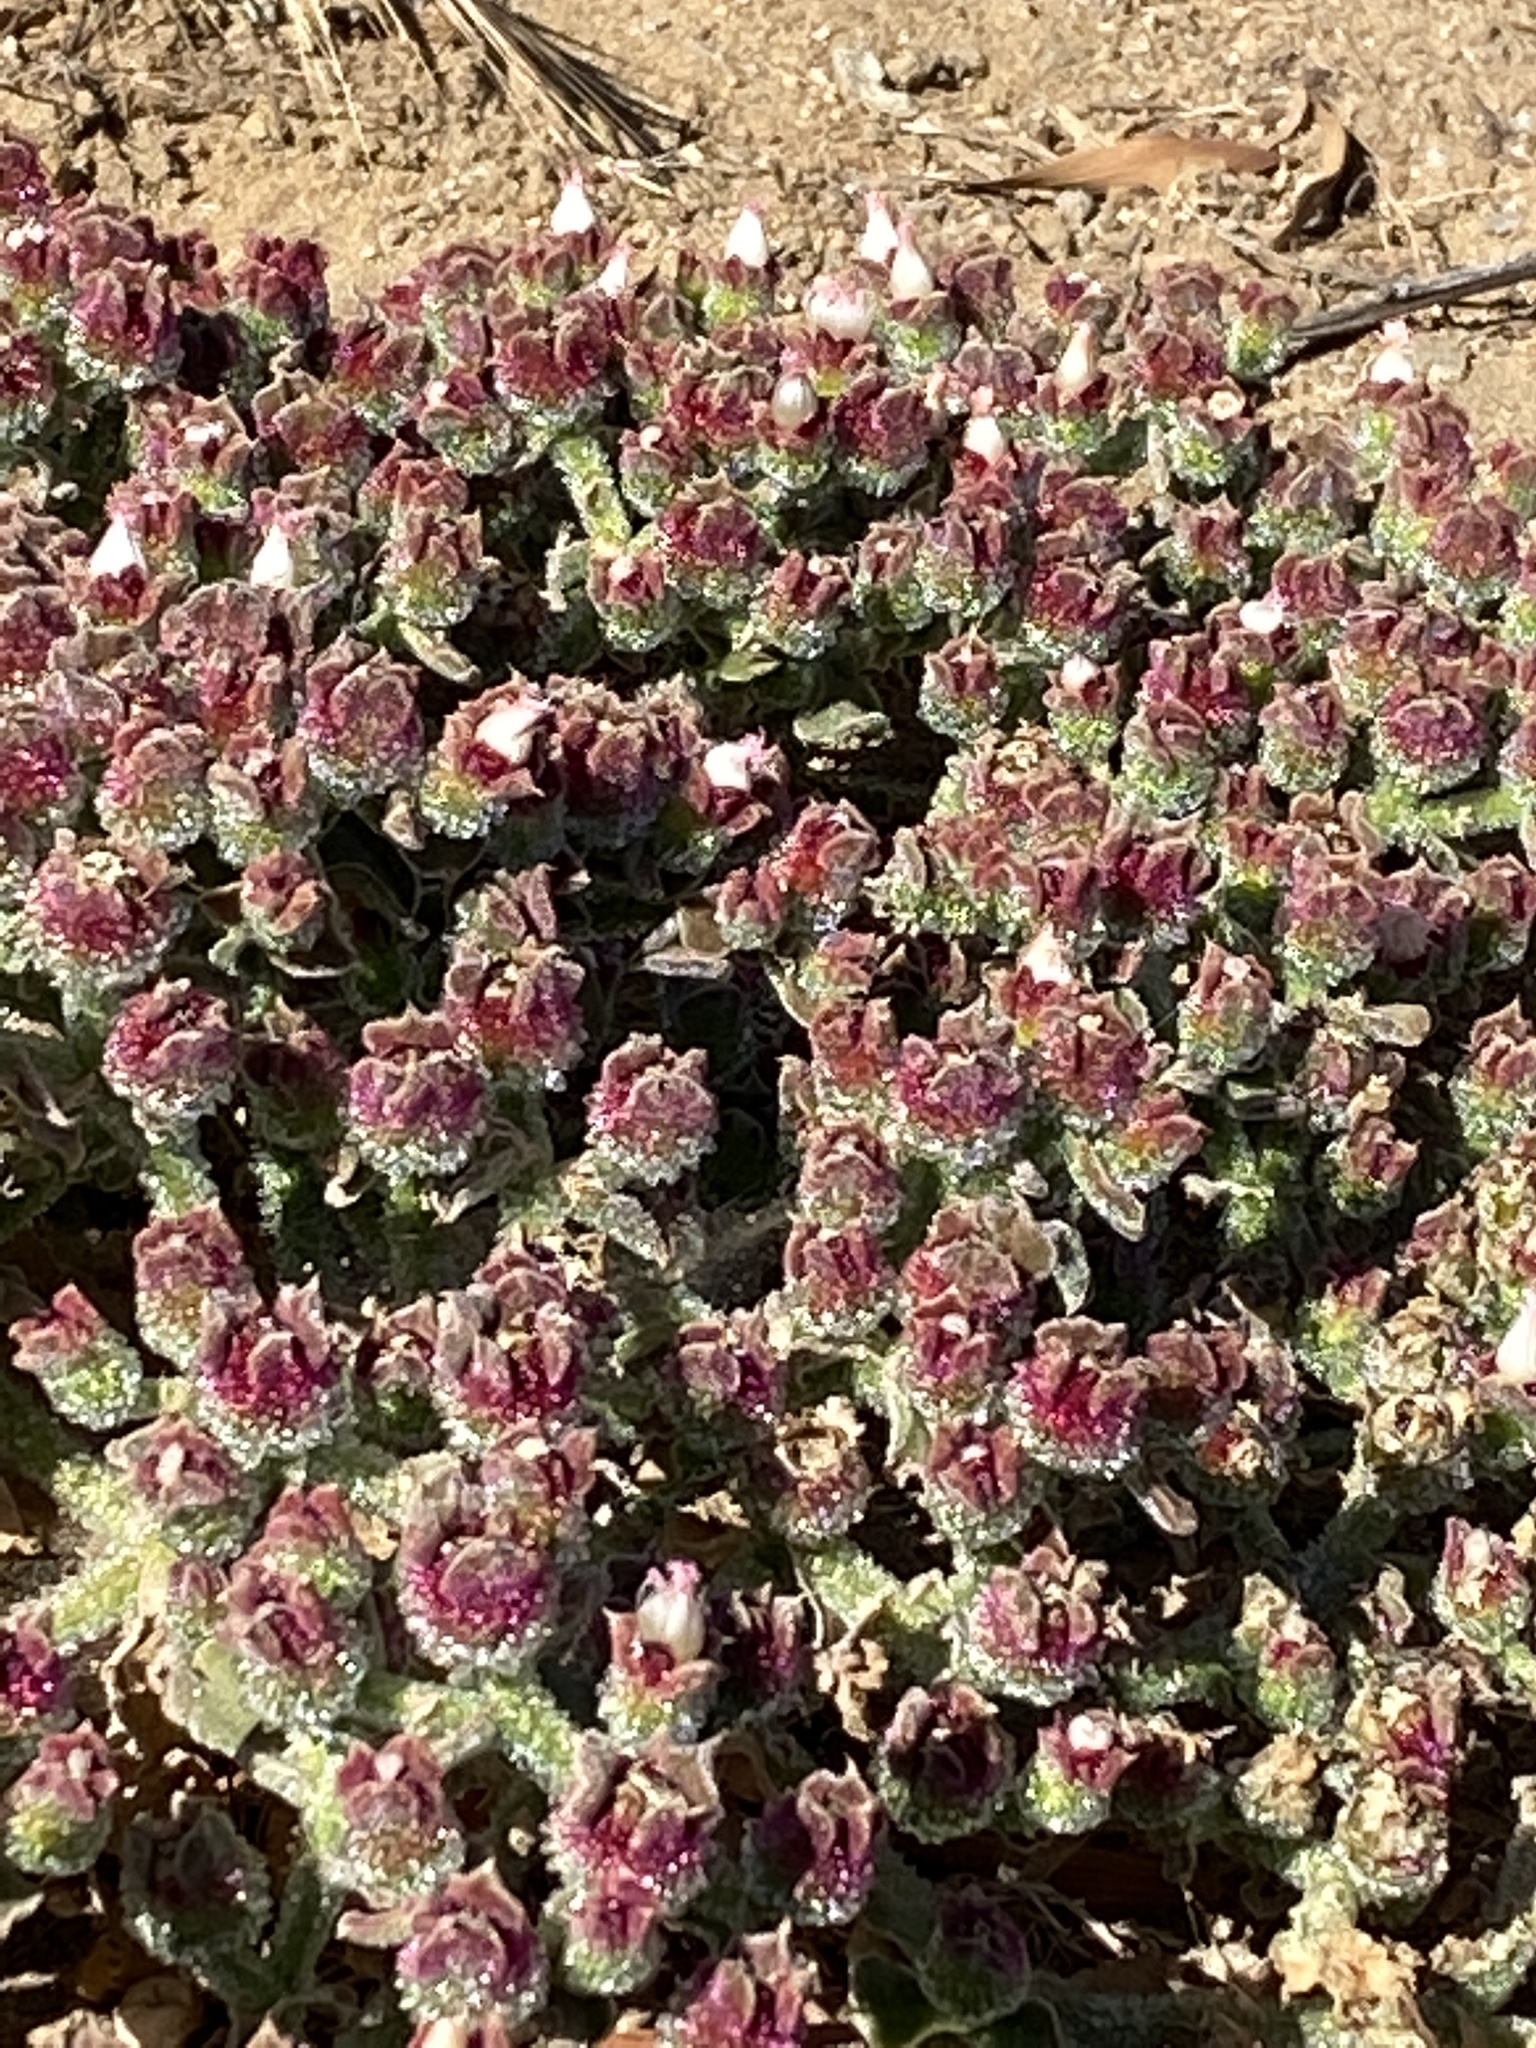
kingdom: Plantae
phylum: Tracheophyta
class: Magnoliopsida
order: Caryophyllales
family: Aizoaceae
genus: Mesembryanthemum
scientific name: Mesembryanthemum crystallinum
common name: Common iceplant
